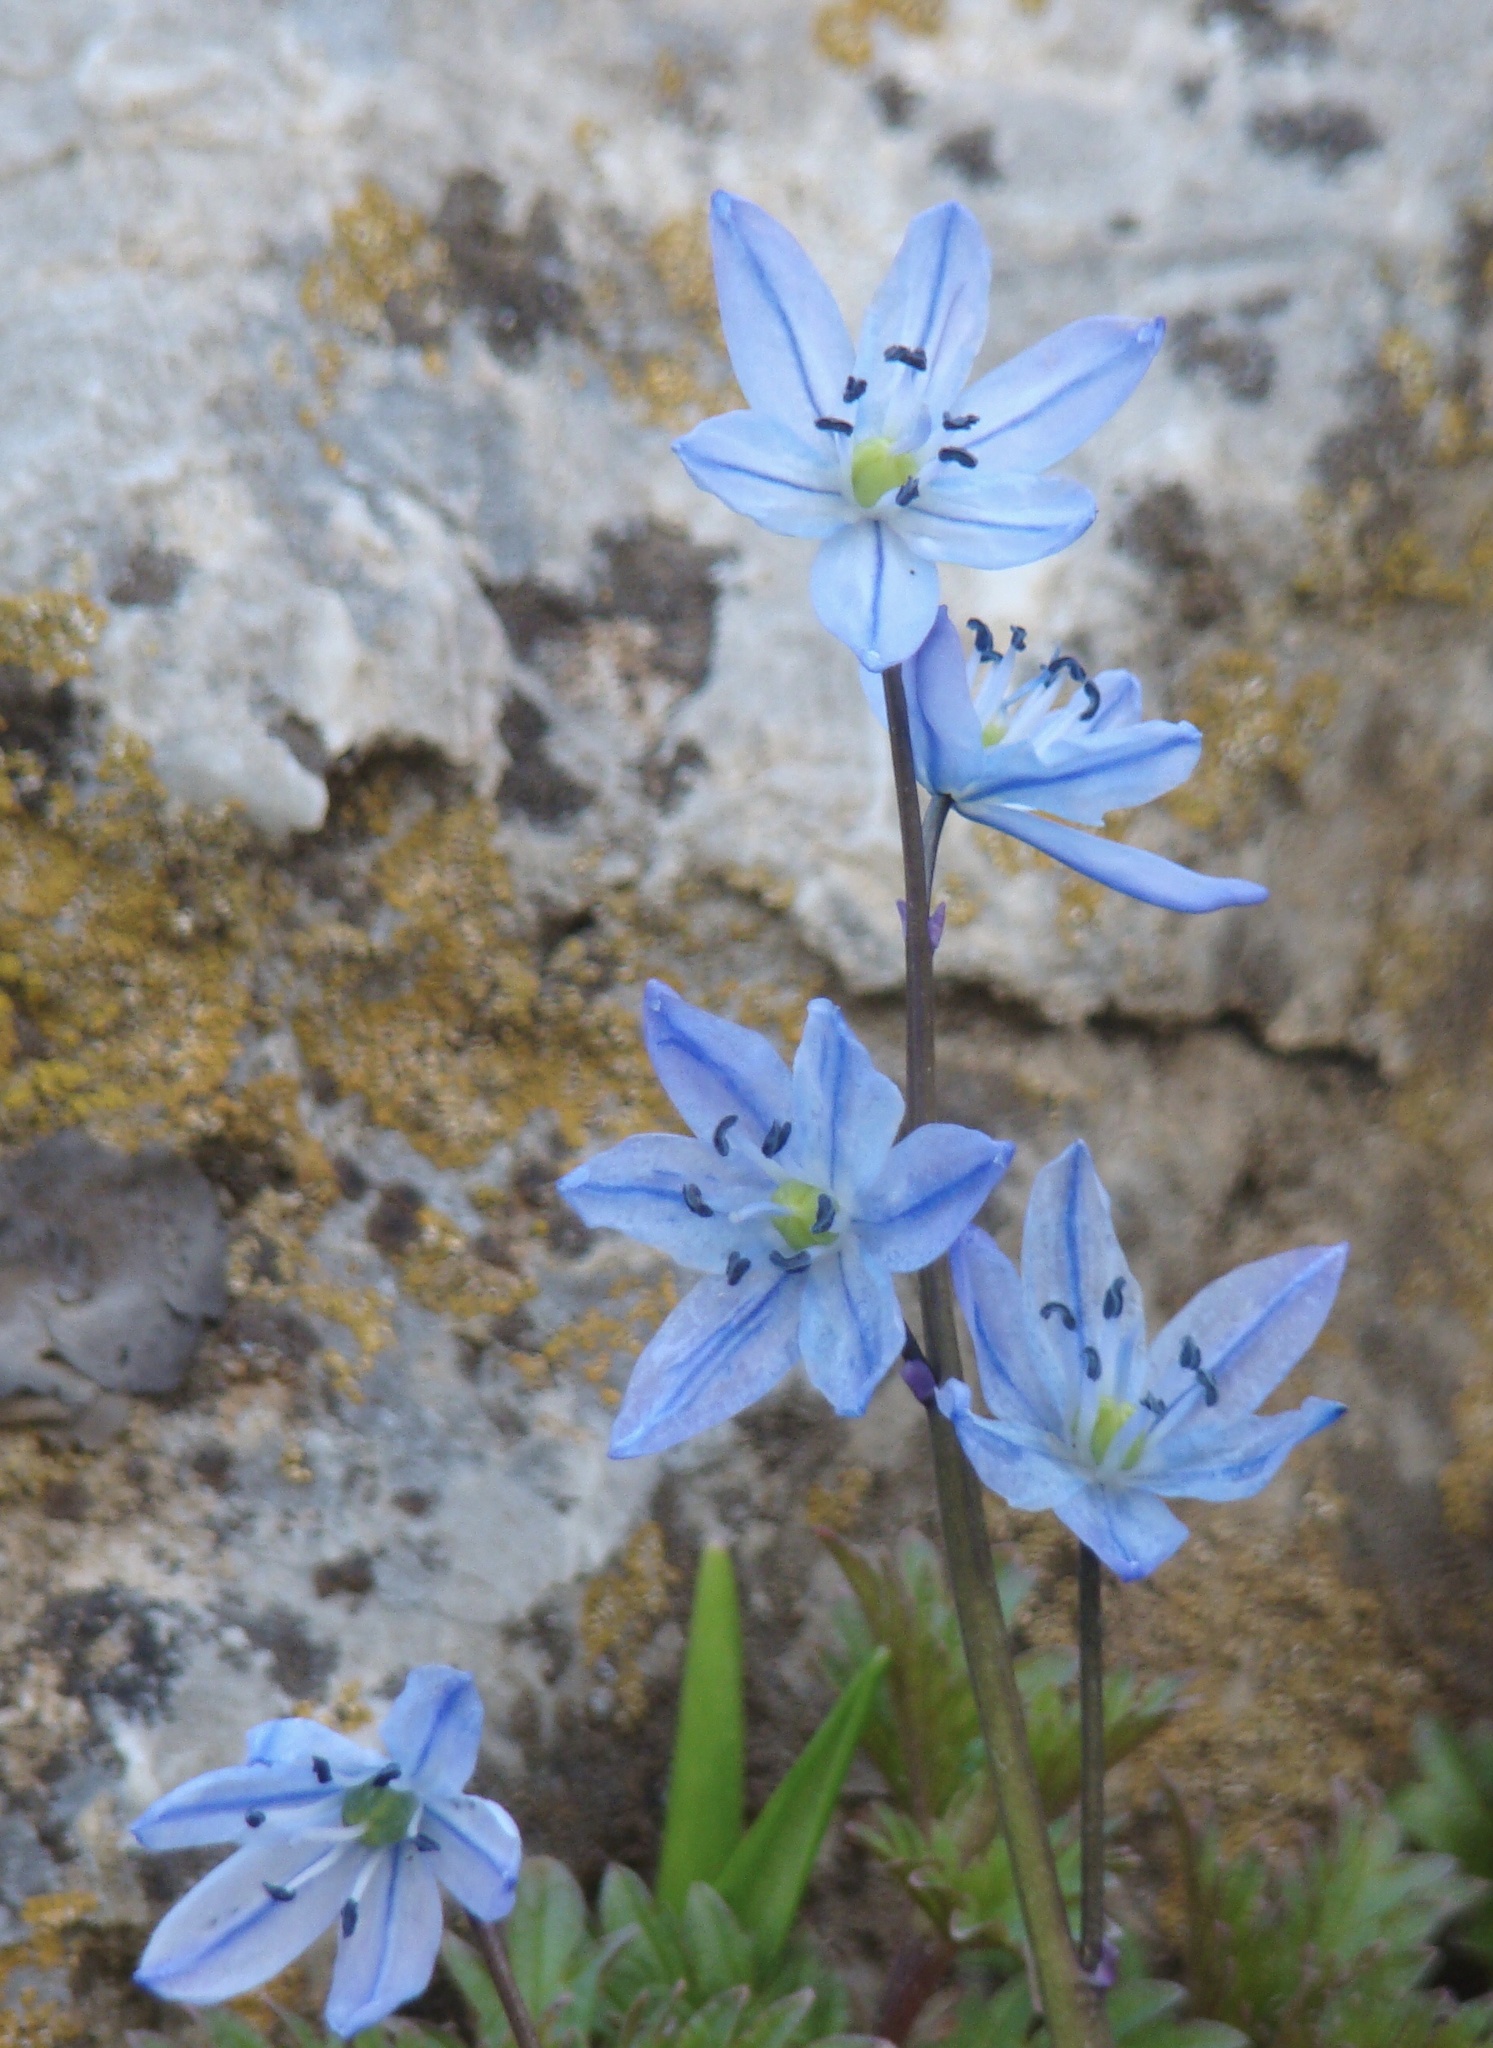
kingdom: Plantae
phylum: Tracheophyta
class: Liliopsida
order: Asparagales
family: Asparagaceae
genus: Scilla
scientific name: Scilla ingridiae
